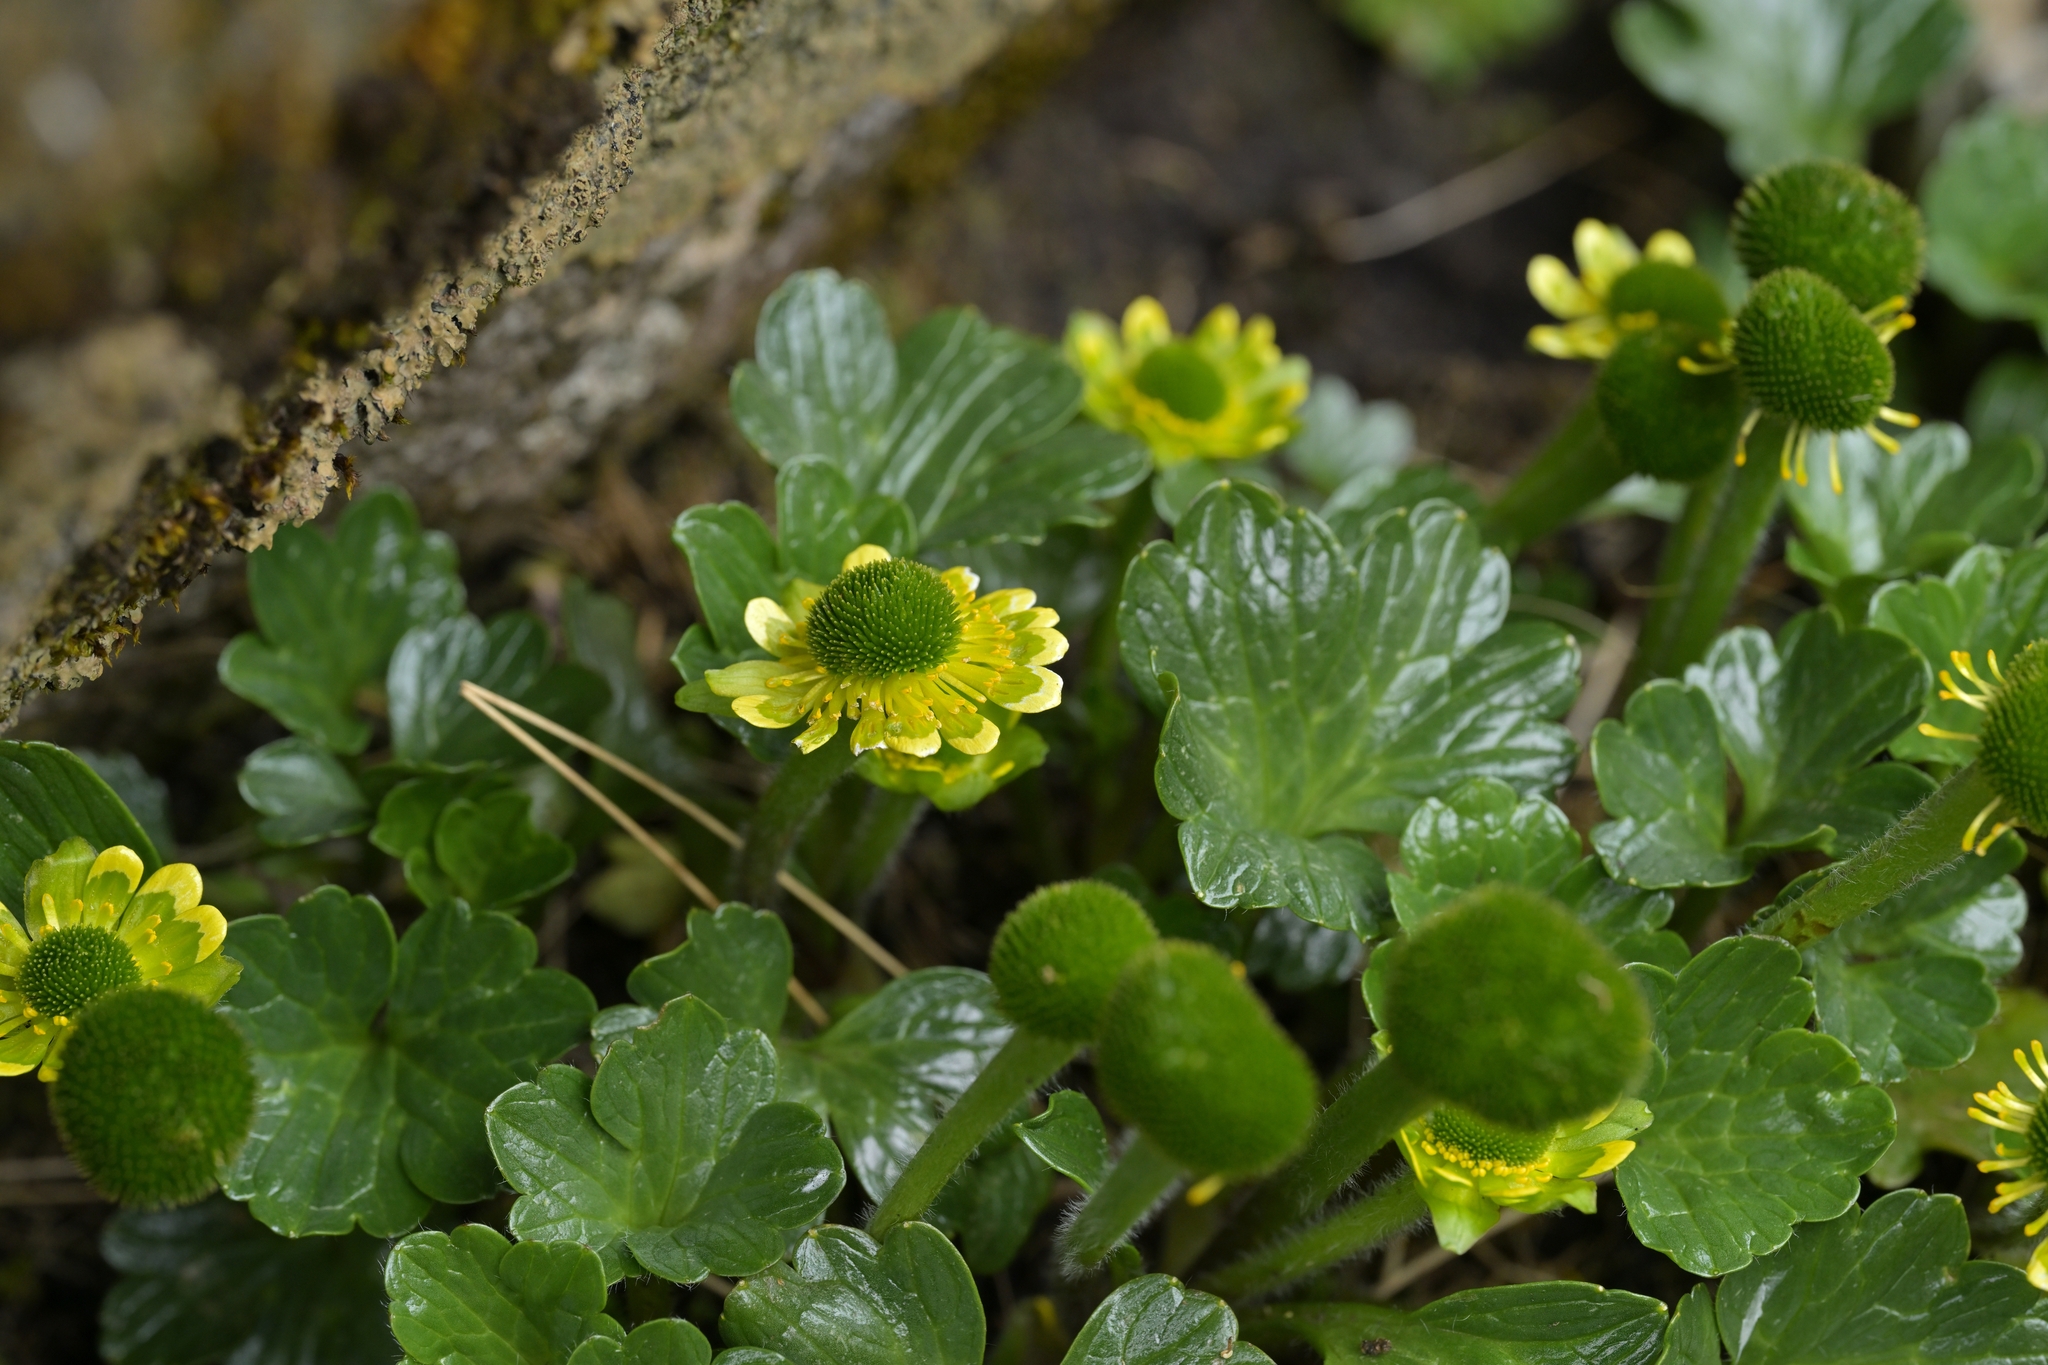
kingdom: Plantae
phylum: Tracheophyta
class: Magnoliopsida
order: Ranunculales
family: Ranunculaceae
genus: Ranunculus
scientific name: Ranunculus pinguis
